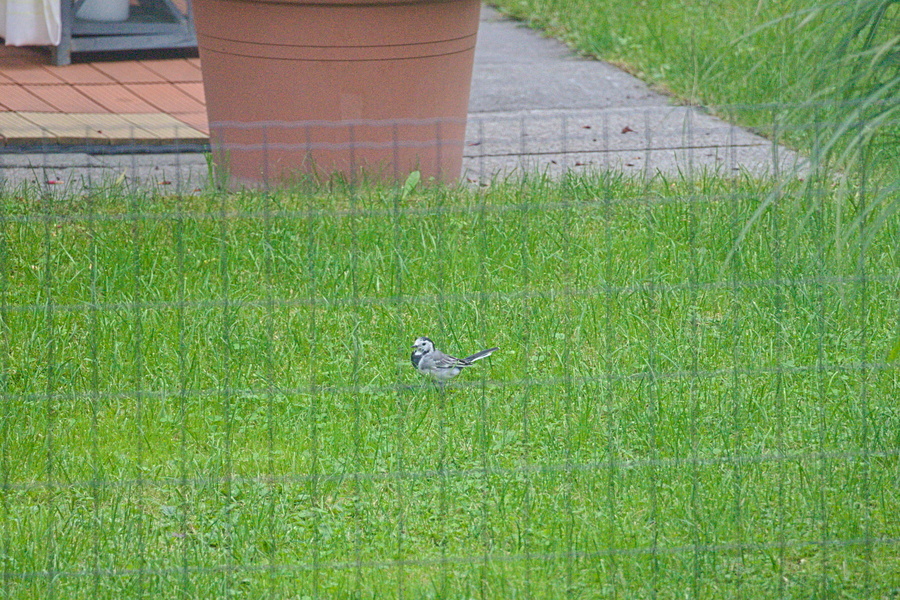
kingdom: Animalia
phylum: Chordata
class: Aves
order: Passeriformes
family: Motacillidae
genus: Motacilla
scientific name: Motacilla alba
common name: White wagtail
